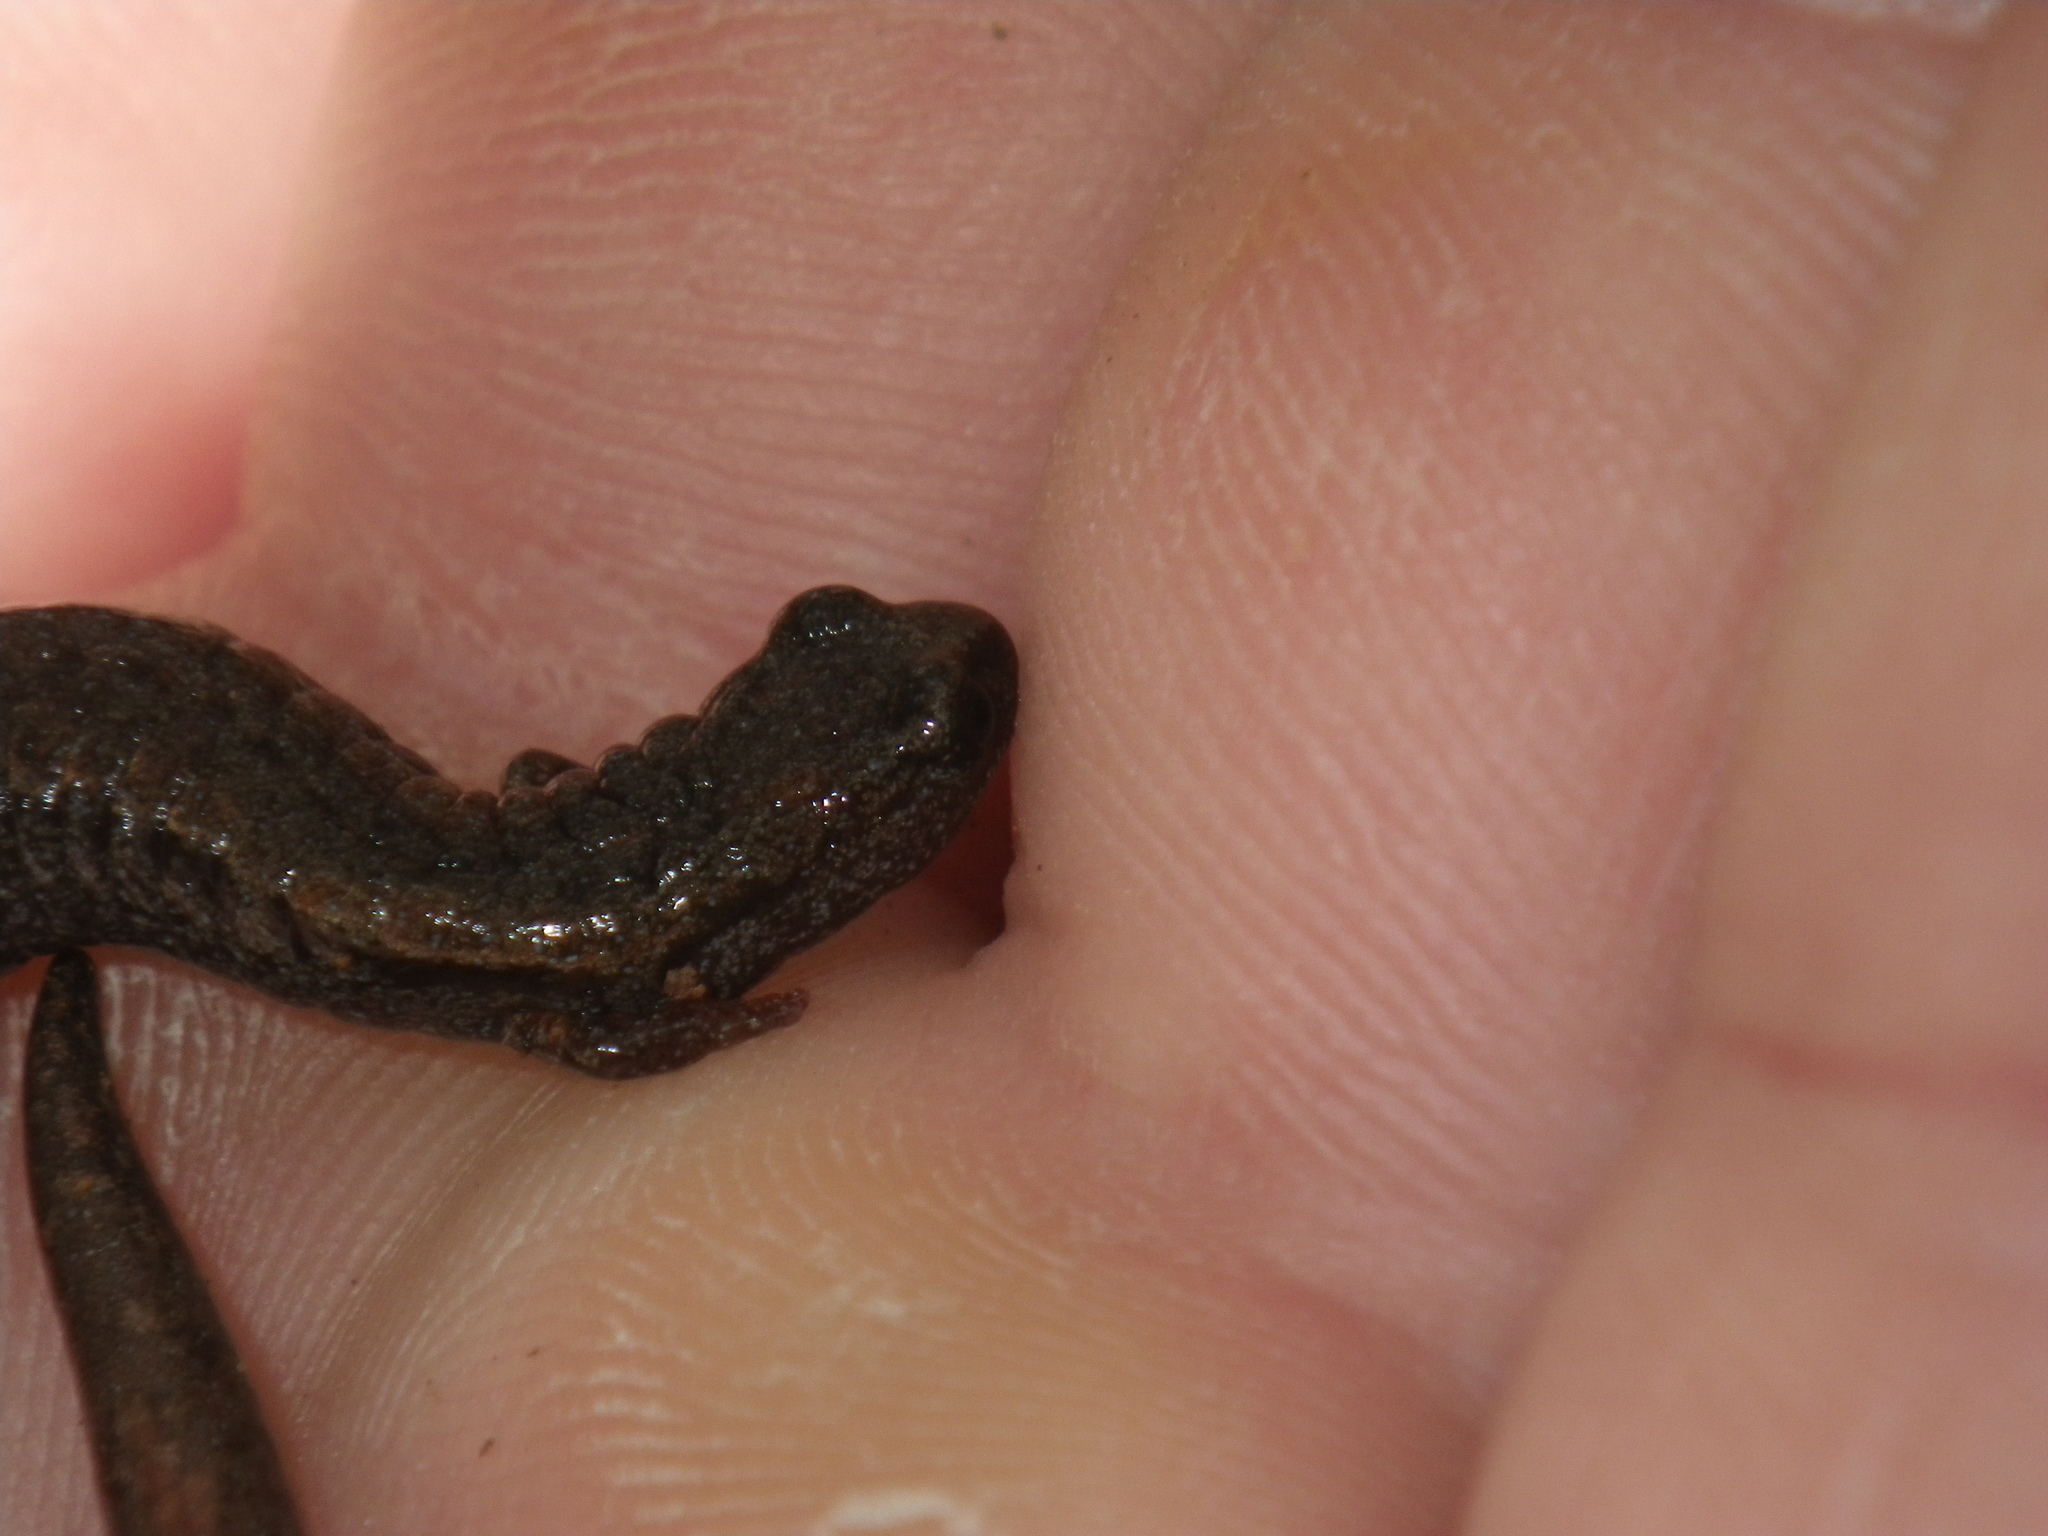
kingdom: Animalia
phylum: Chordata
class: Amphibia
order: Caudata
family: Plethodontidae
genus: Batrachoseps
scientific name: Batrachoseps attenuatus
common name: California slender salamander
